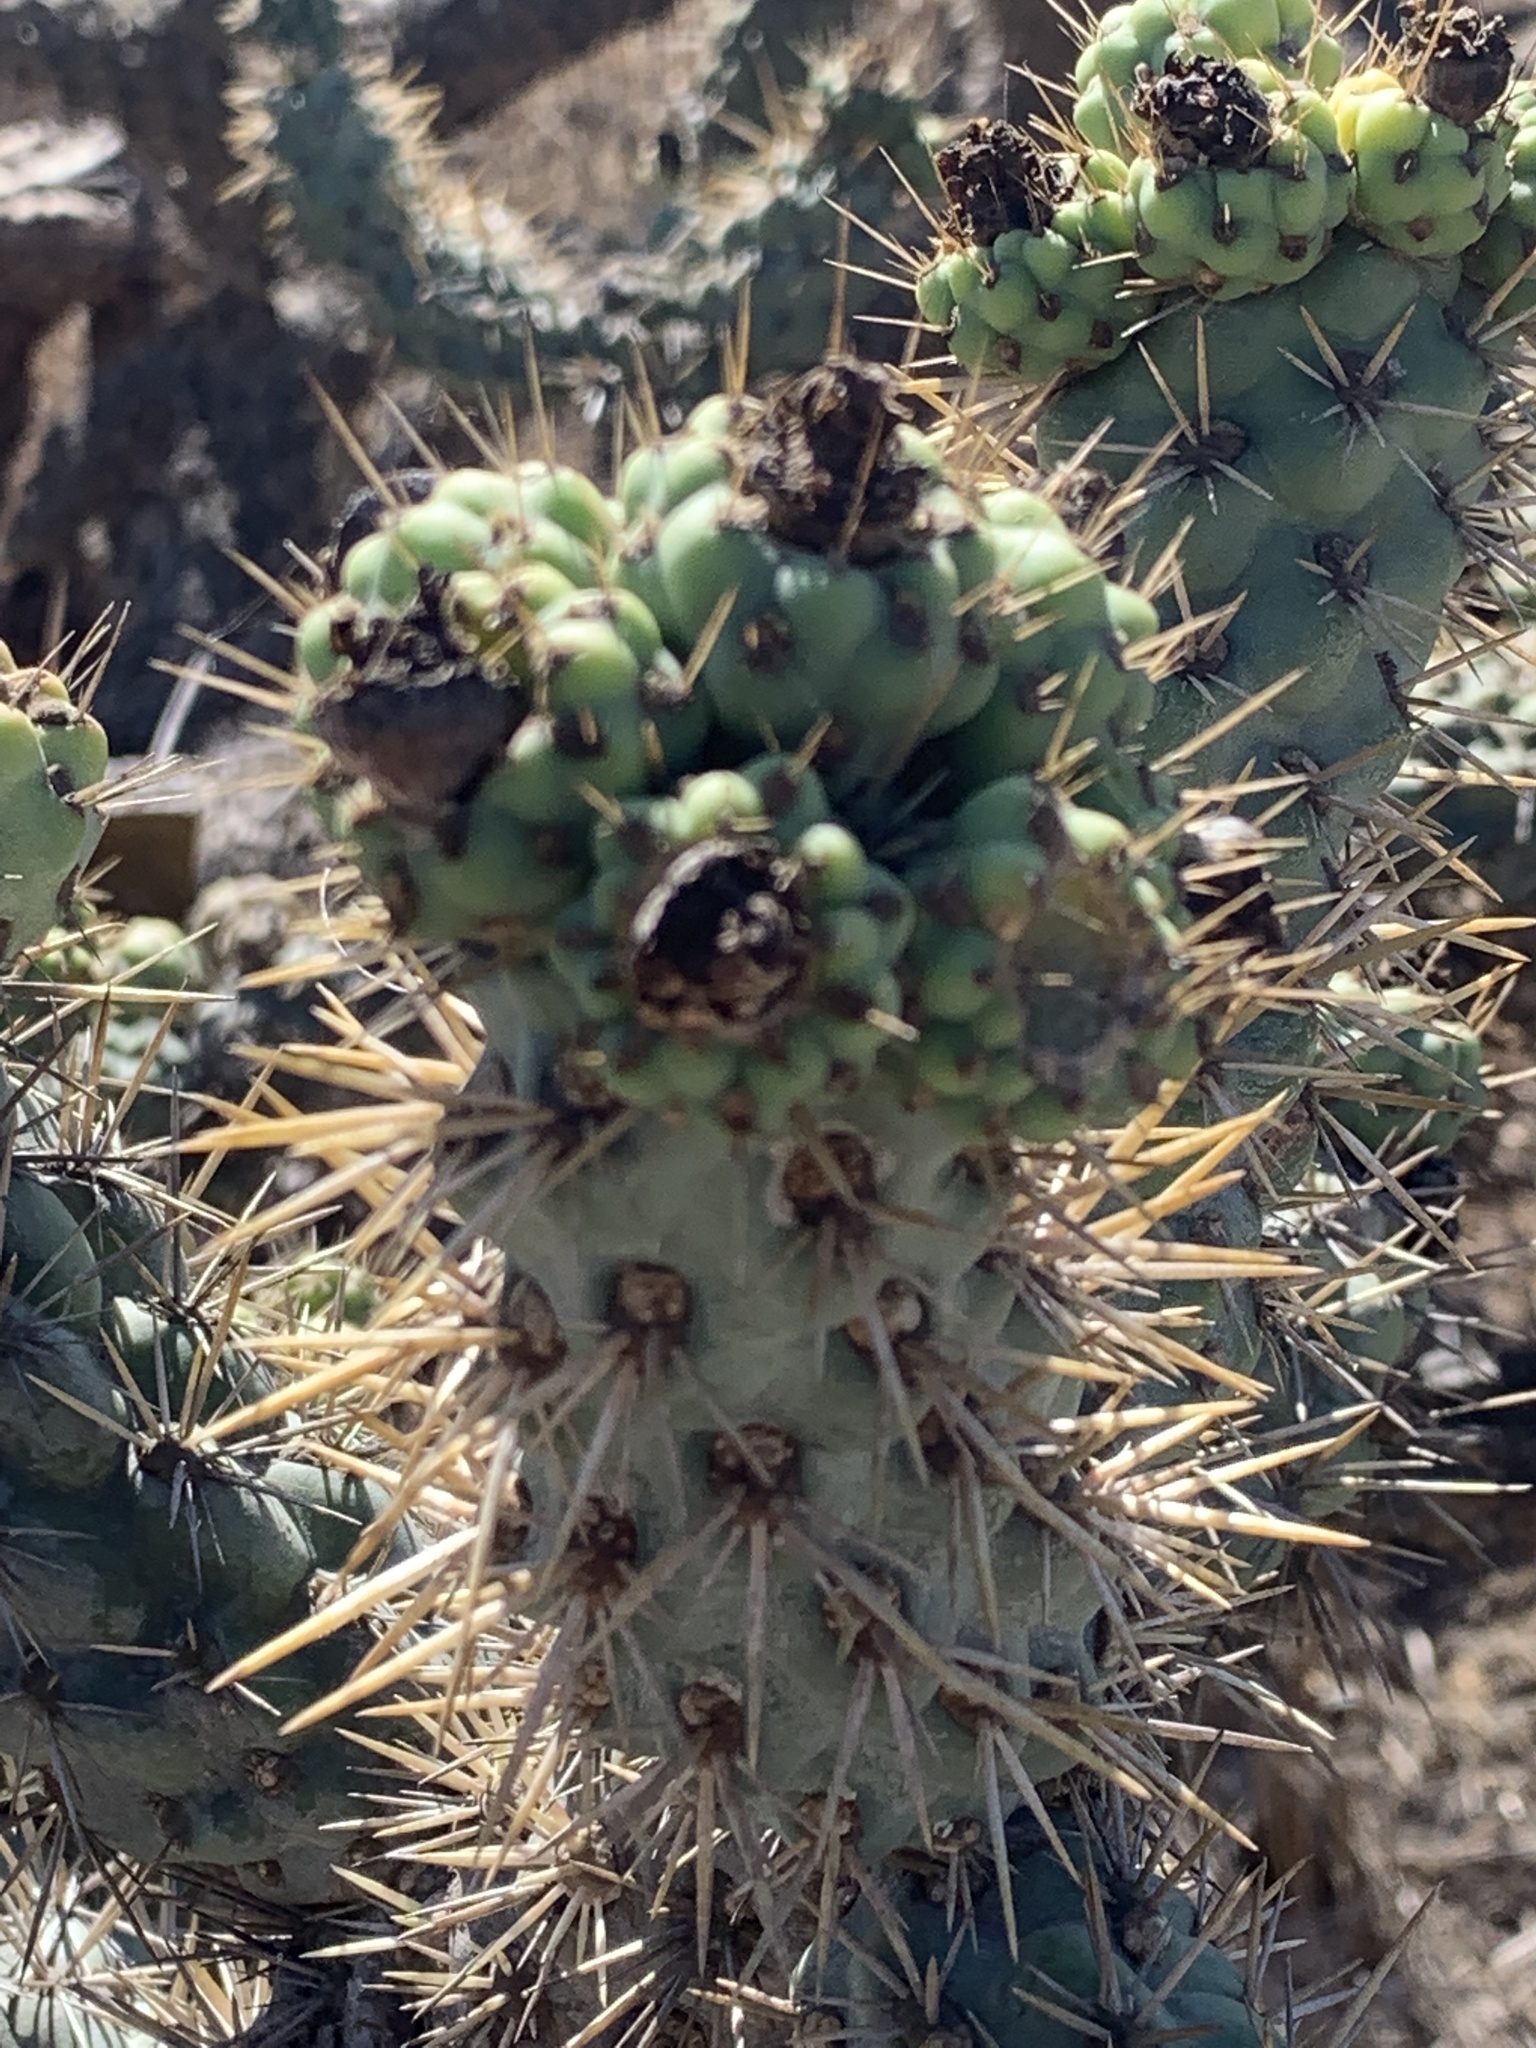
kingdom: Plantae
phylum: Tracheophyta
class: Magnoliopsida
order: Caryophyllales
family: Cactaceae
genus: Cylindropuntia
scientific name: Cylindropuntia prolifera
